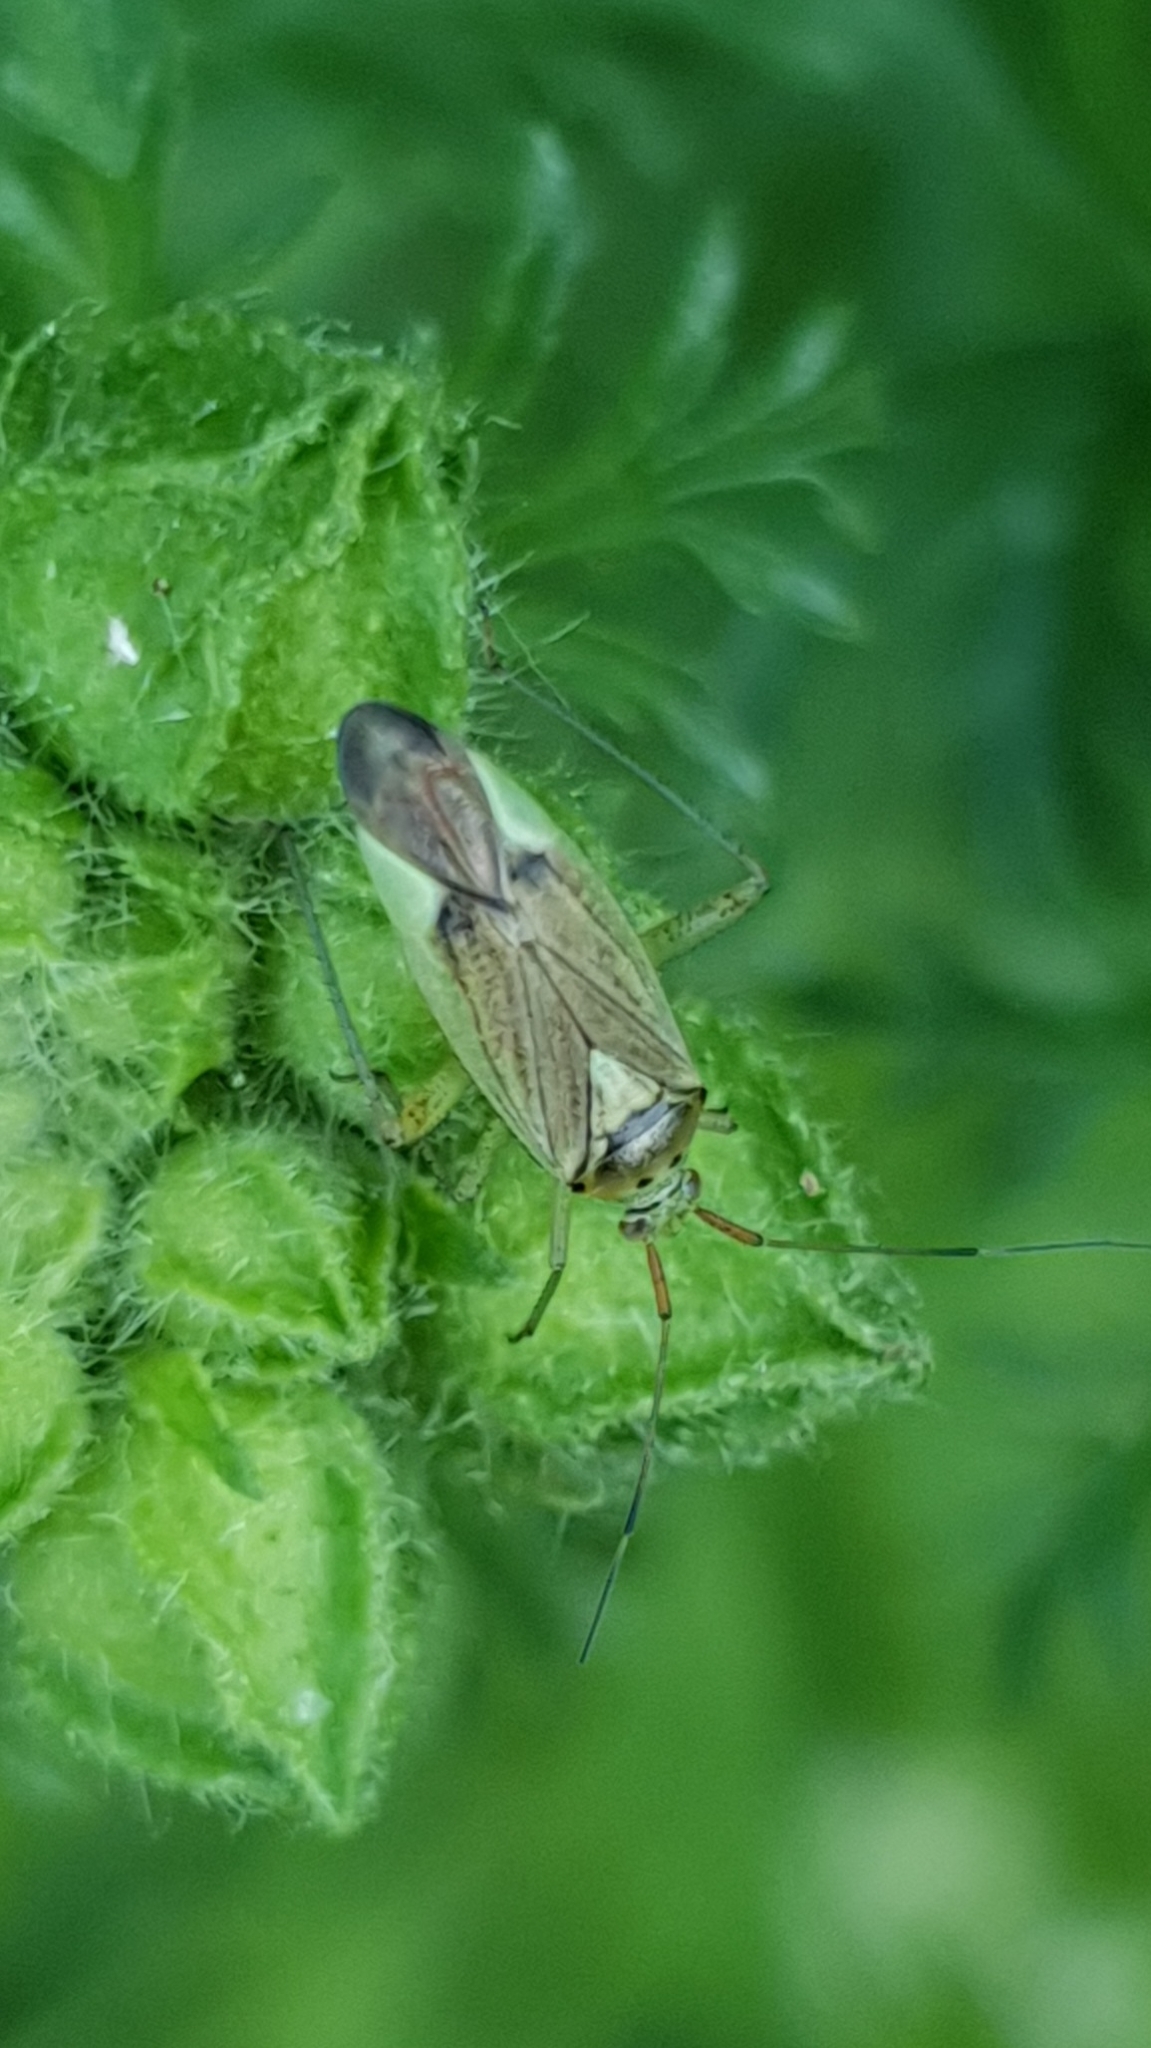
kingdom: Animalia
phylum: Arthropoda
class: Insecta
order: Hemiptera
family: Miridae
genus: Closterotomus
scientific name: Closterotomus trivialis
